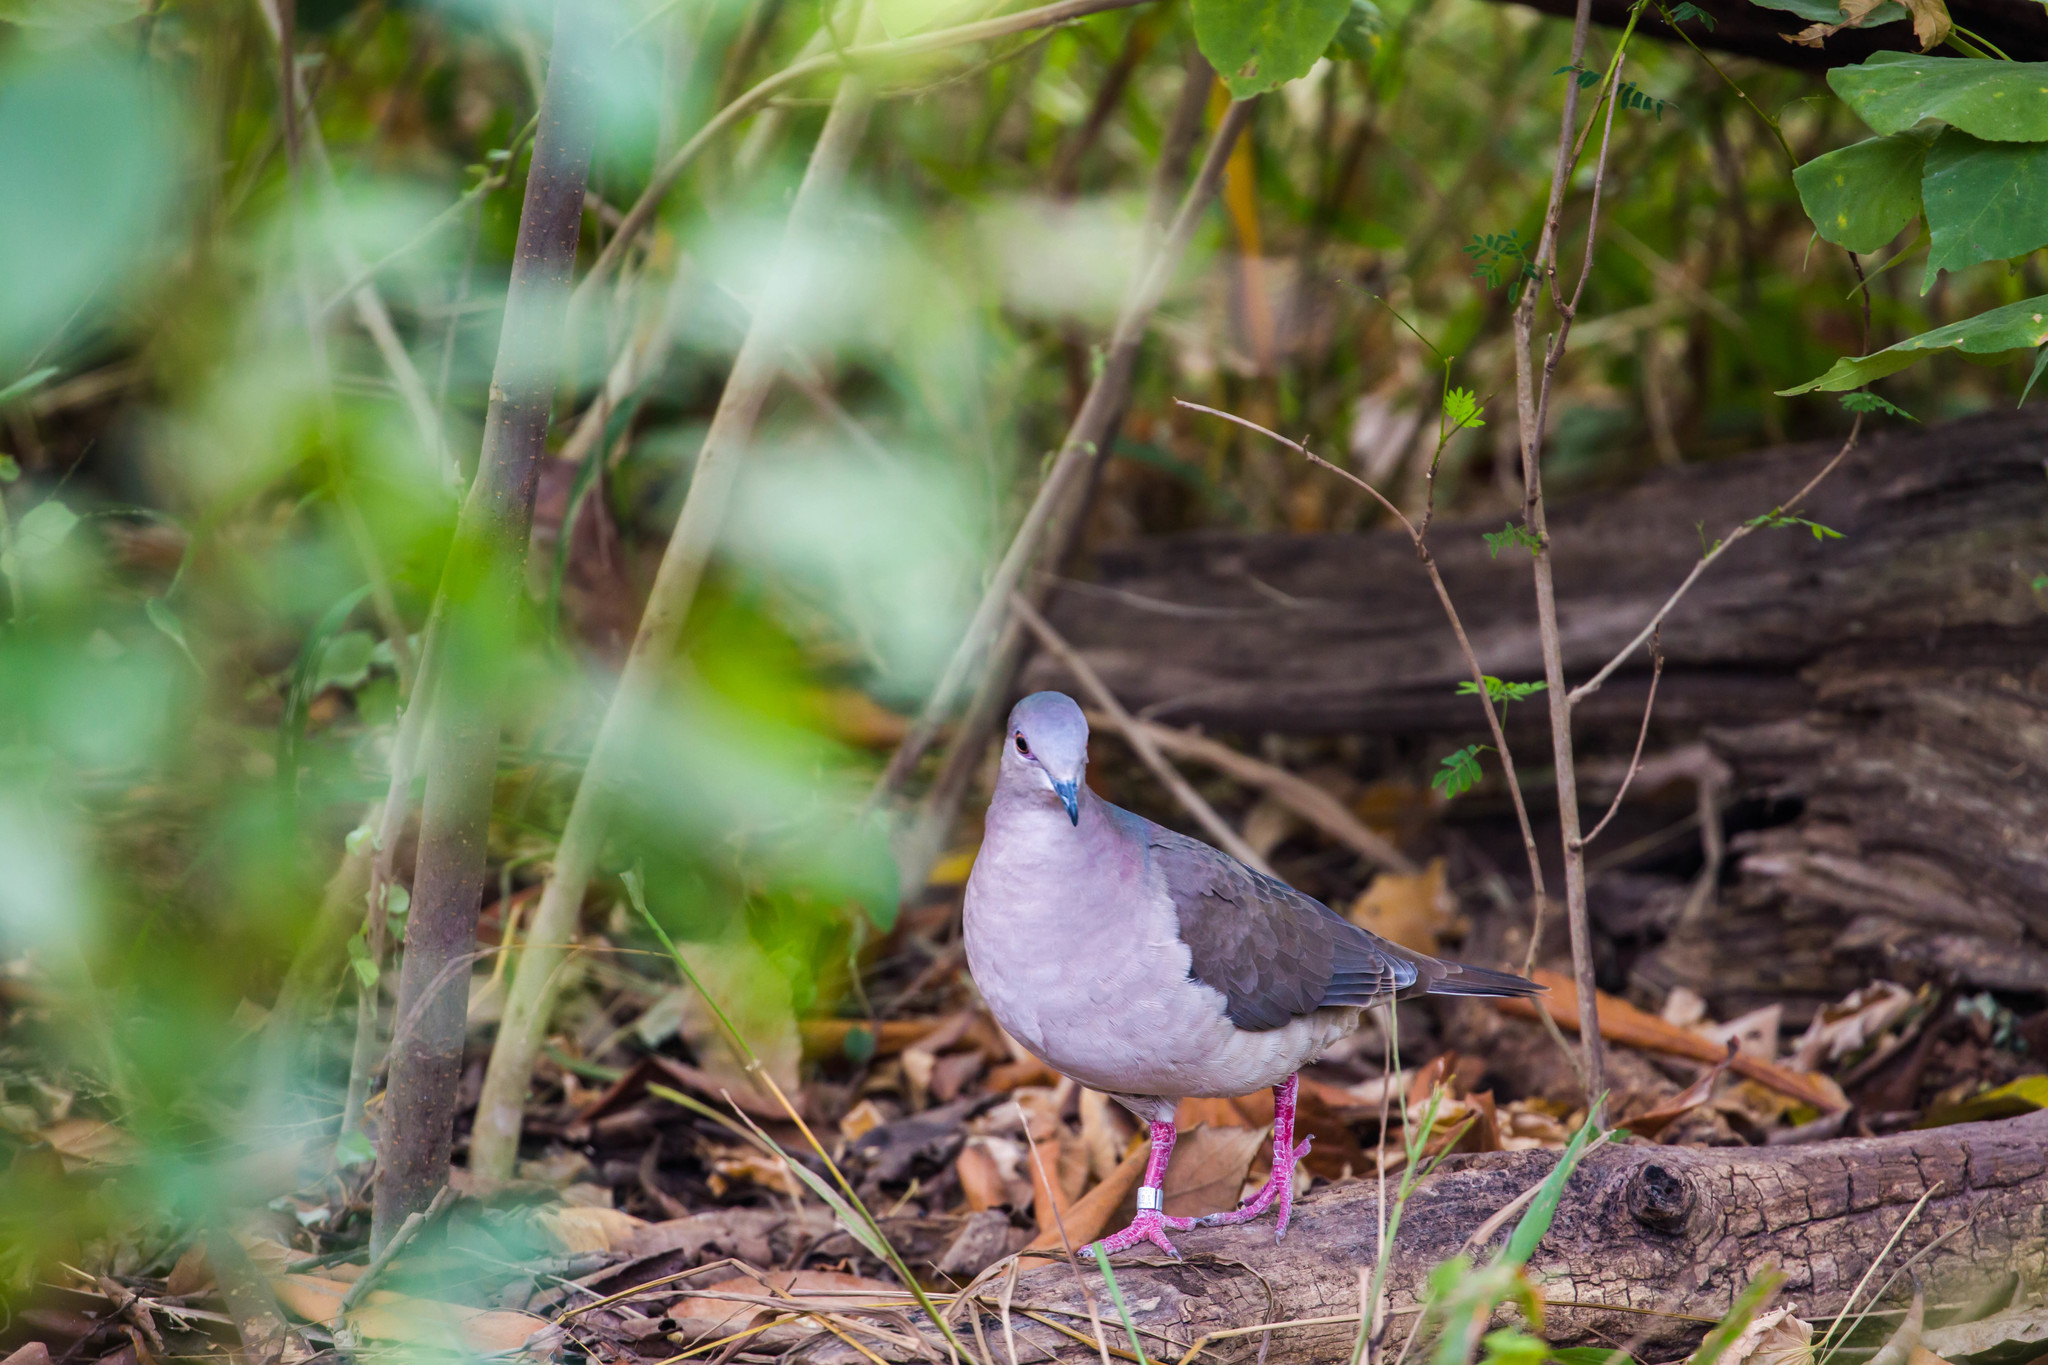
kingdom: Animalia
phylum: Chordata
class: Aves
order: Columbiformes
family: Columbidae
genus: Leptotila
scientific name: Leptotila verreauxi
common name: White-tipped dove
